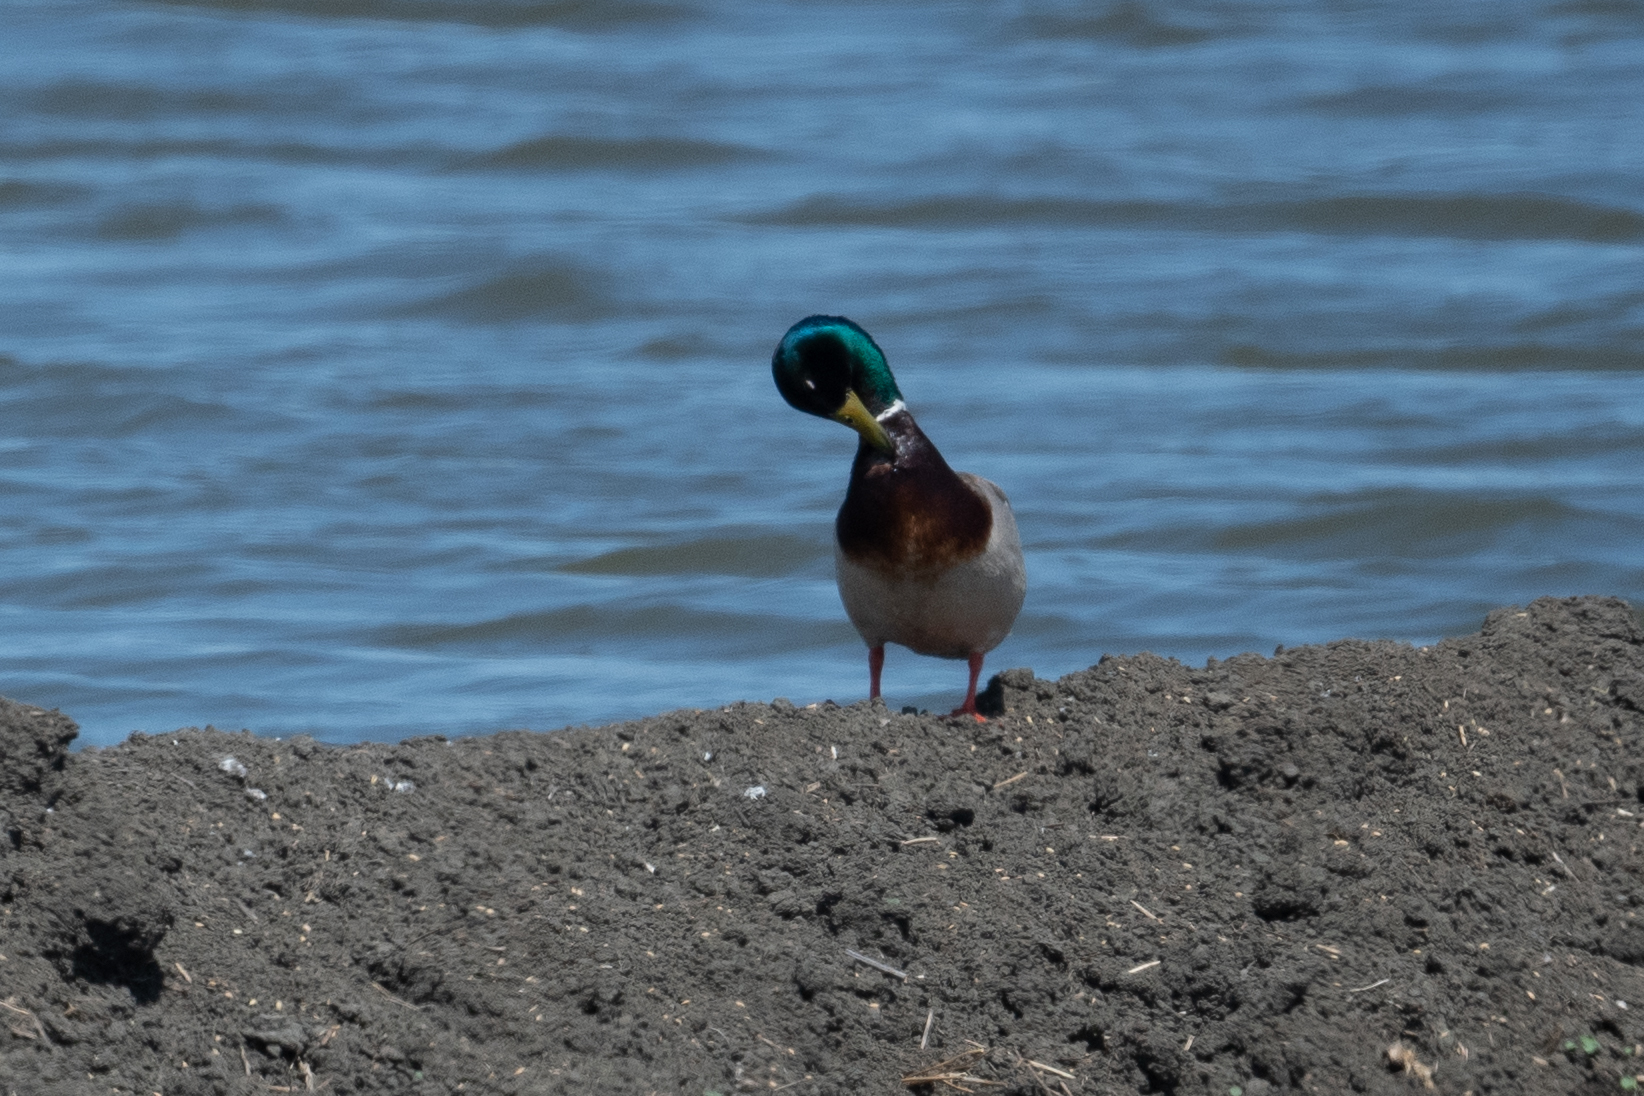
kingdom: Animalia
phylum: Chordata
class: Aves
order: Anseriformes
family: Anatidae
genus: Anas
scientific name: Anas platyrhynchos
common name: Mallard
